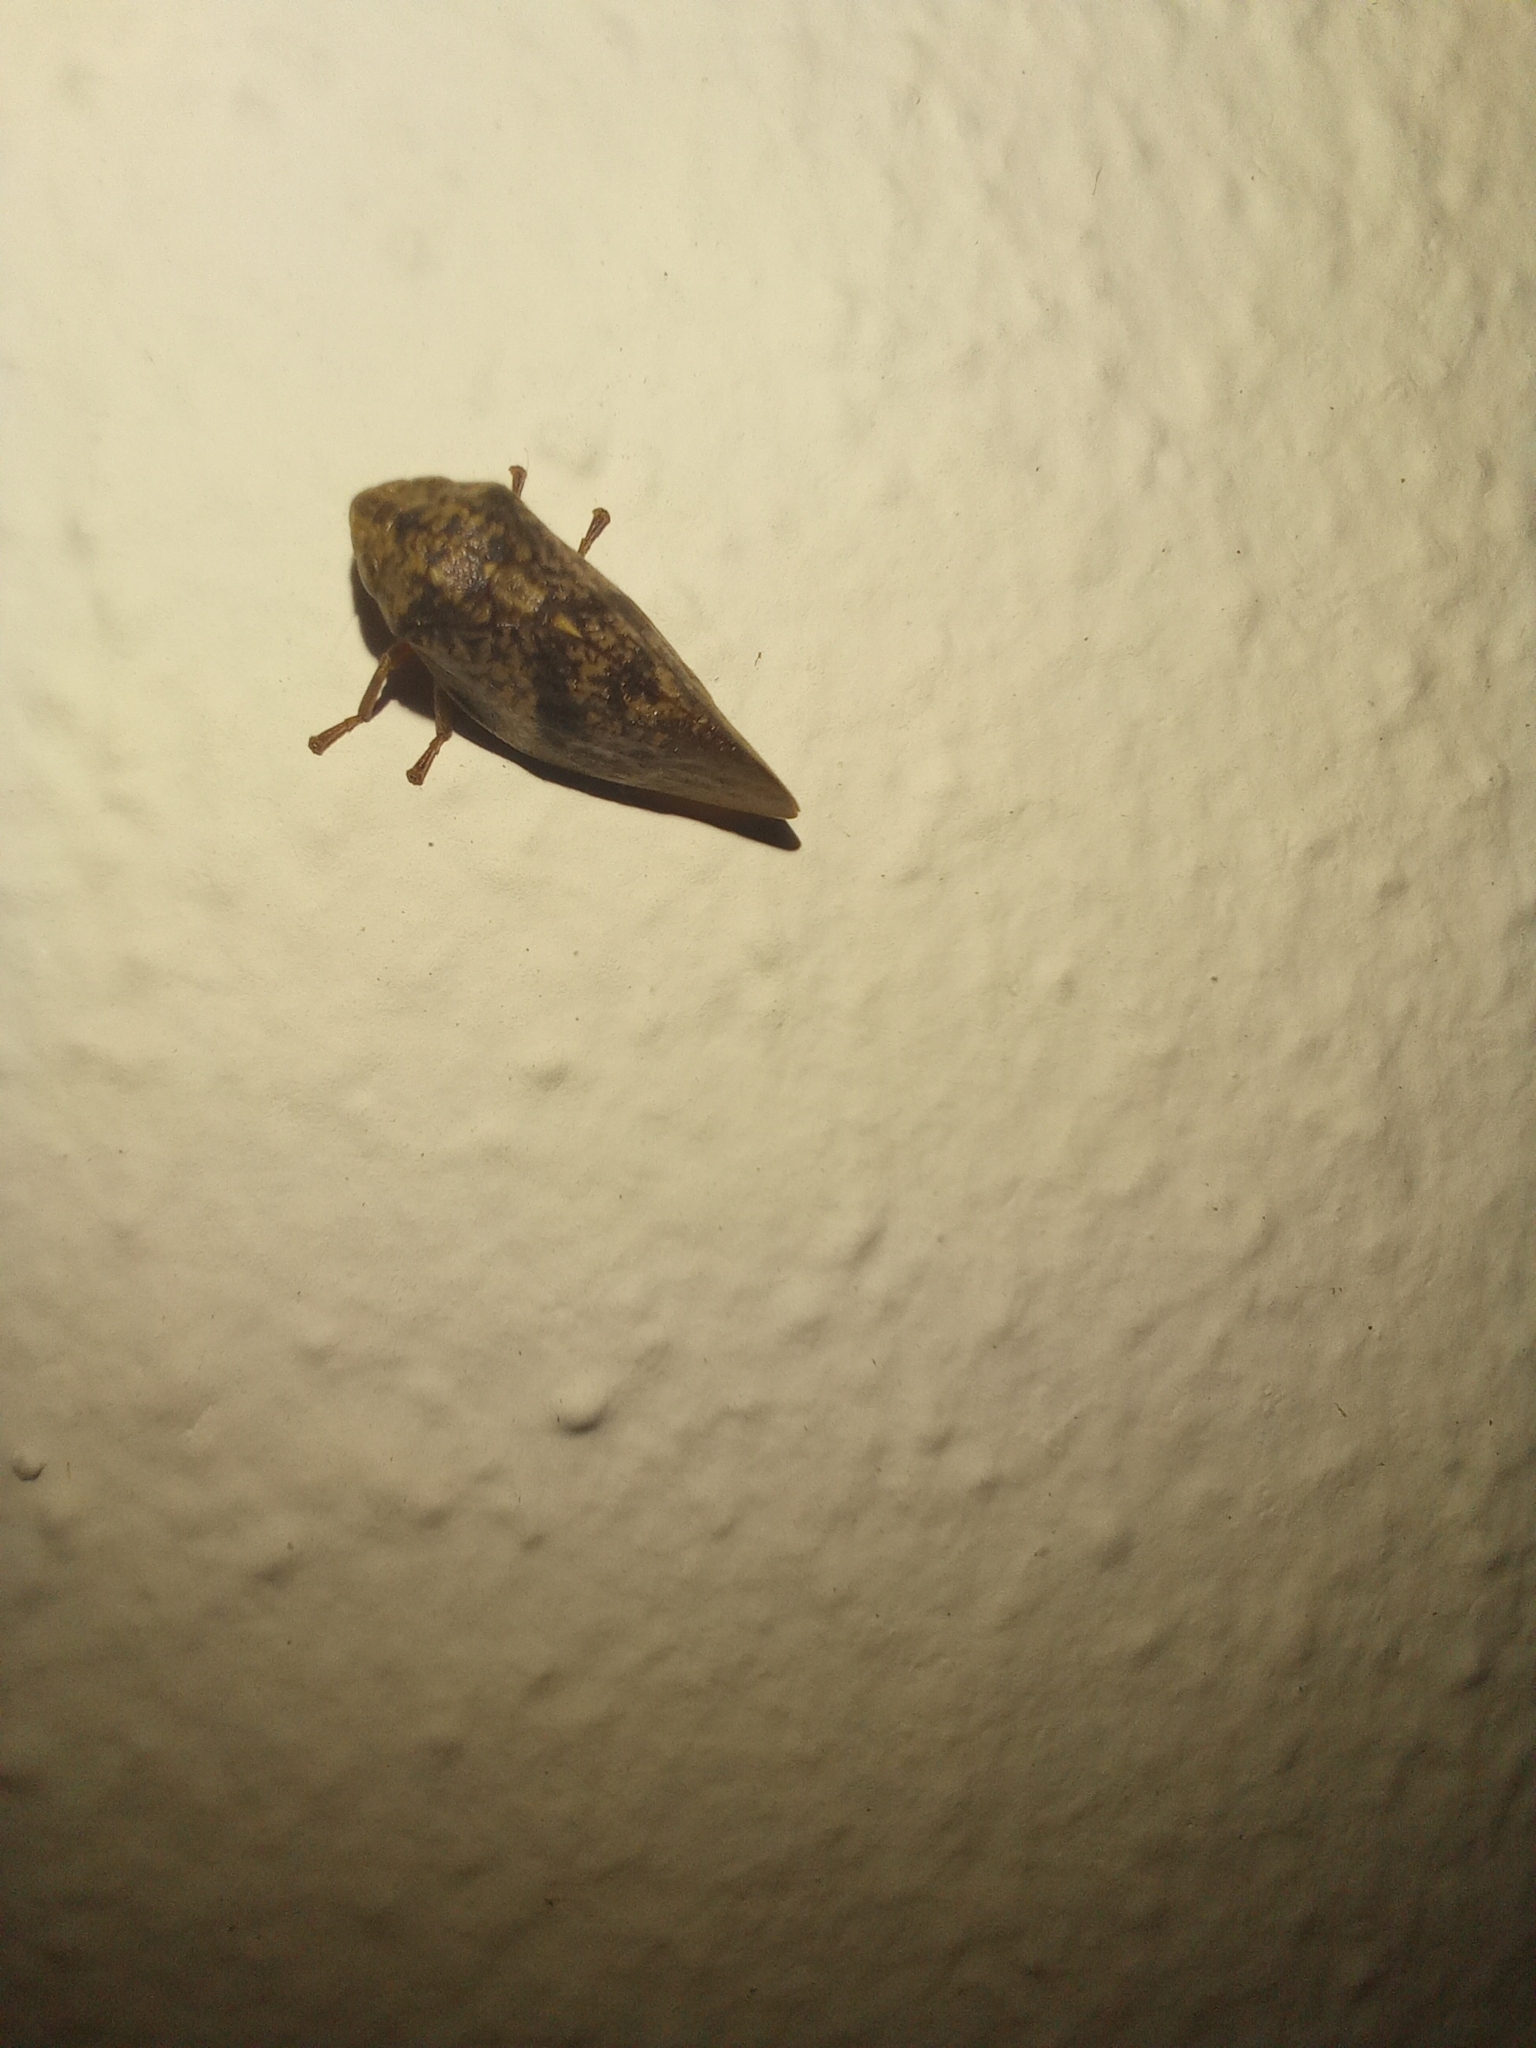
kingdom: Animalia
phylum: Arthropoda
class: Insecta
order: Hemiptera
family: Aphrophoridae
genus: Cephisus
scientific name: Cephisus siccifolius
